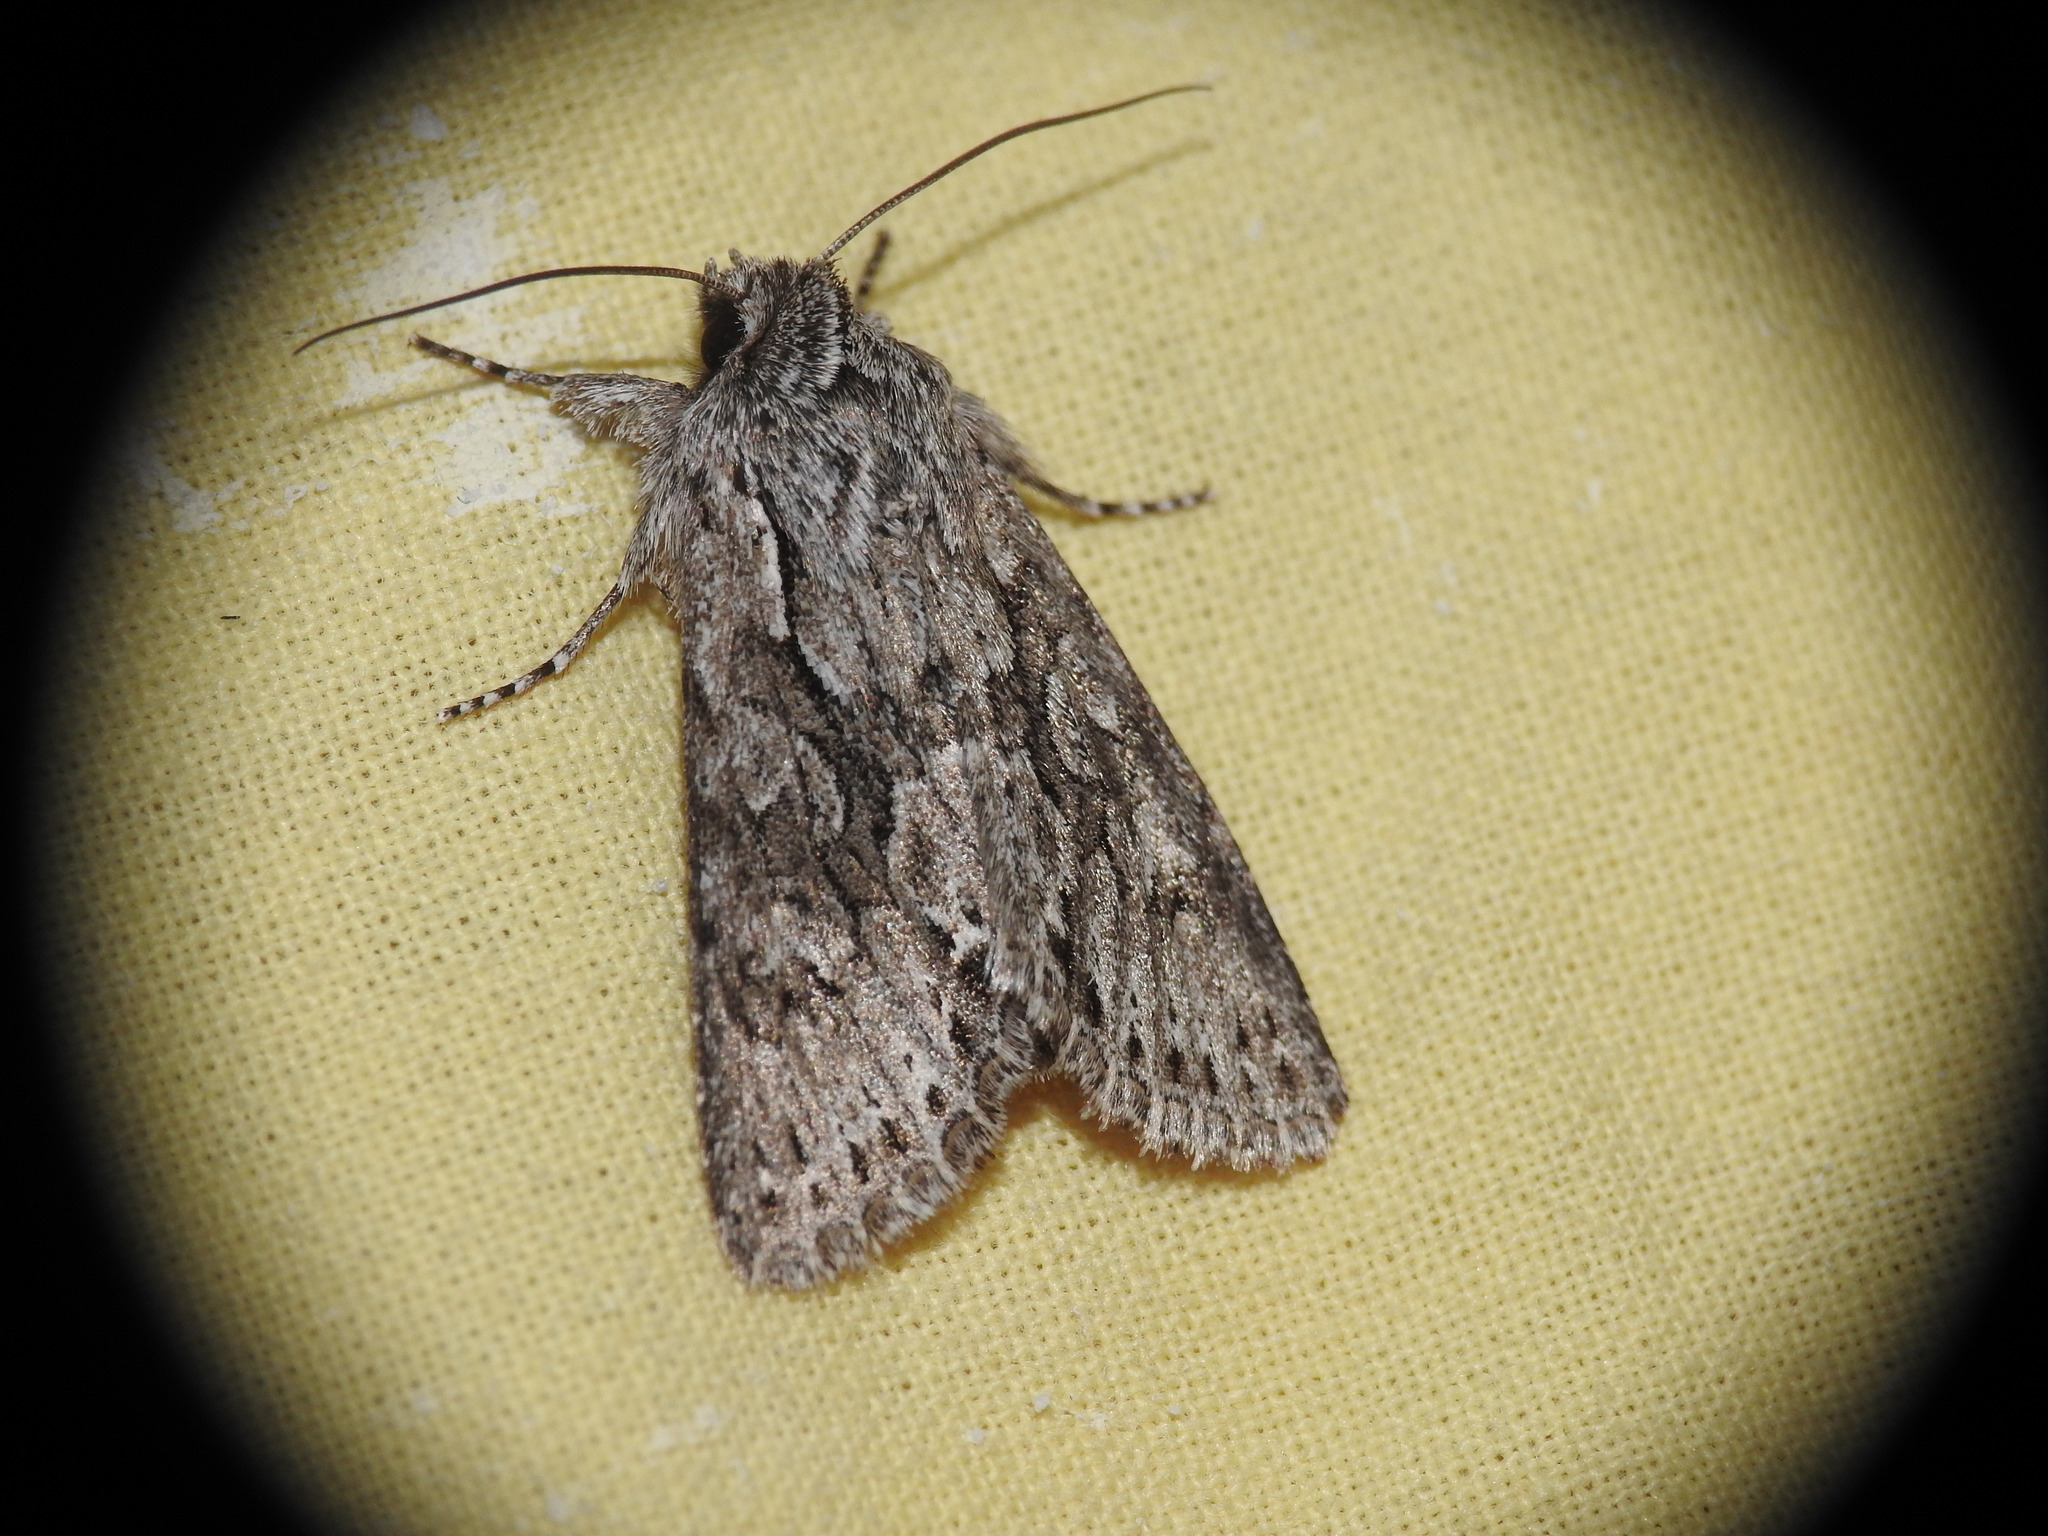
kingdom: Animalia
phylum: Arthropoda
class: Insecta
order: Lepidoptera
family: Noctuidae
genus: Xylocampa
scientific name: Xylocampa areola
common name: Early grey
